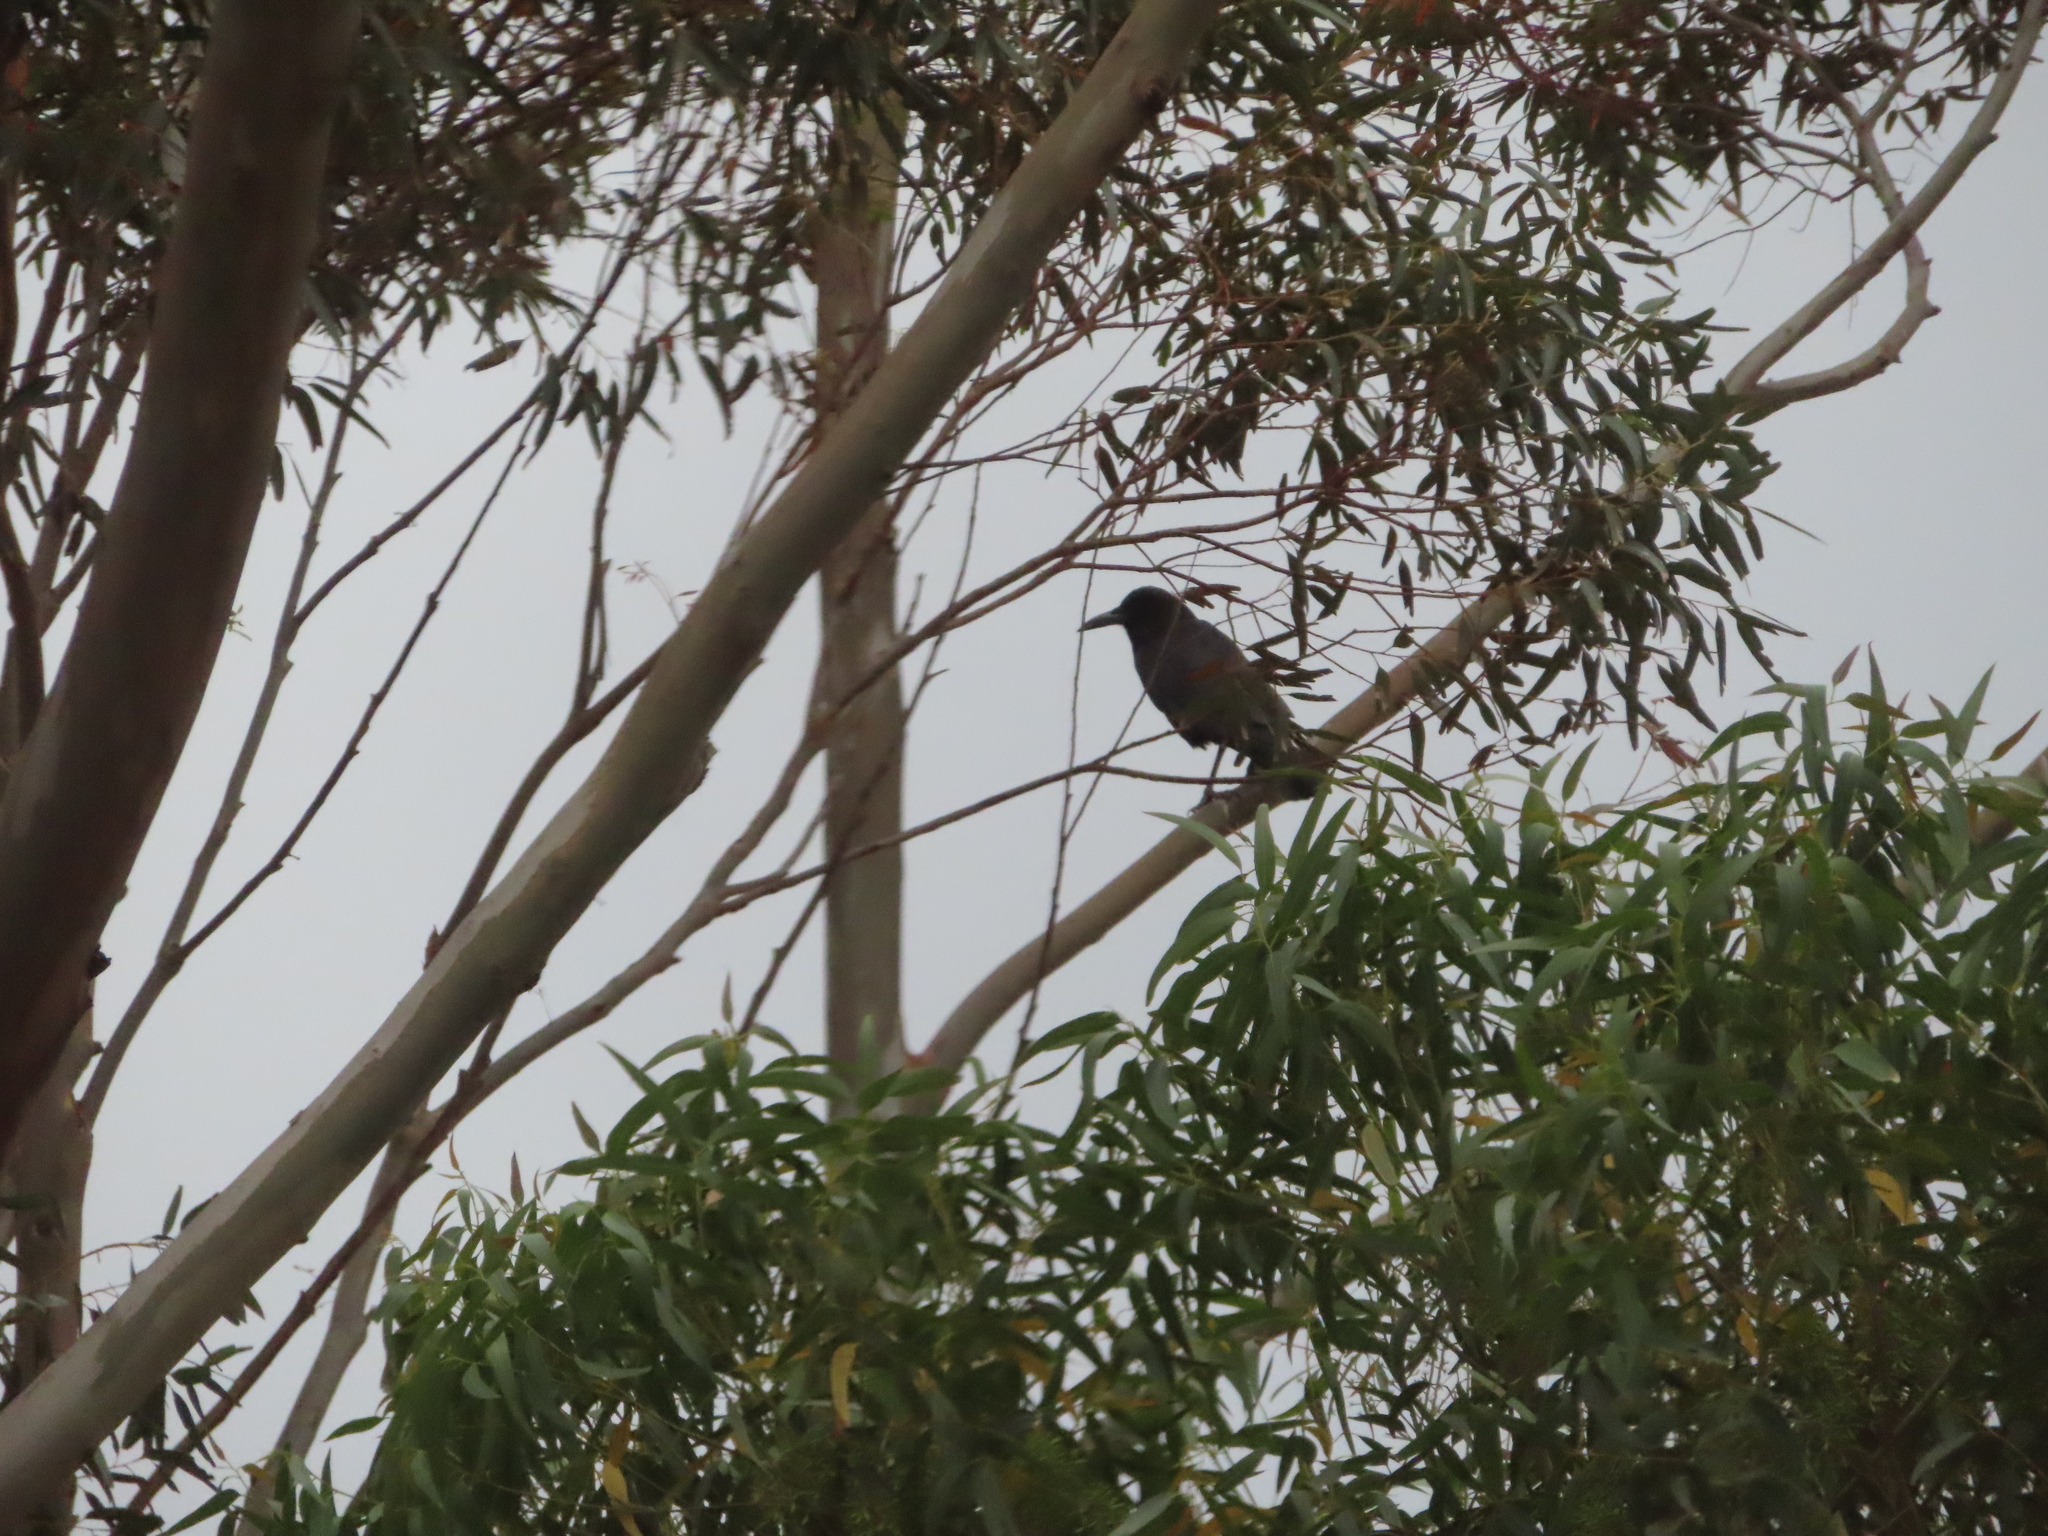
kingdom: Animalia
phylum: Chordata
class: Aves
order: Passeriformes
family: Corvidae
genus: Corvus
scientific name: Corvus capensis
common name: Cape crow
